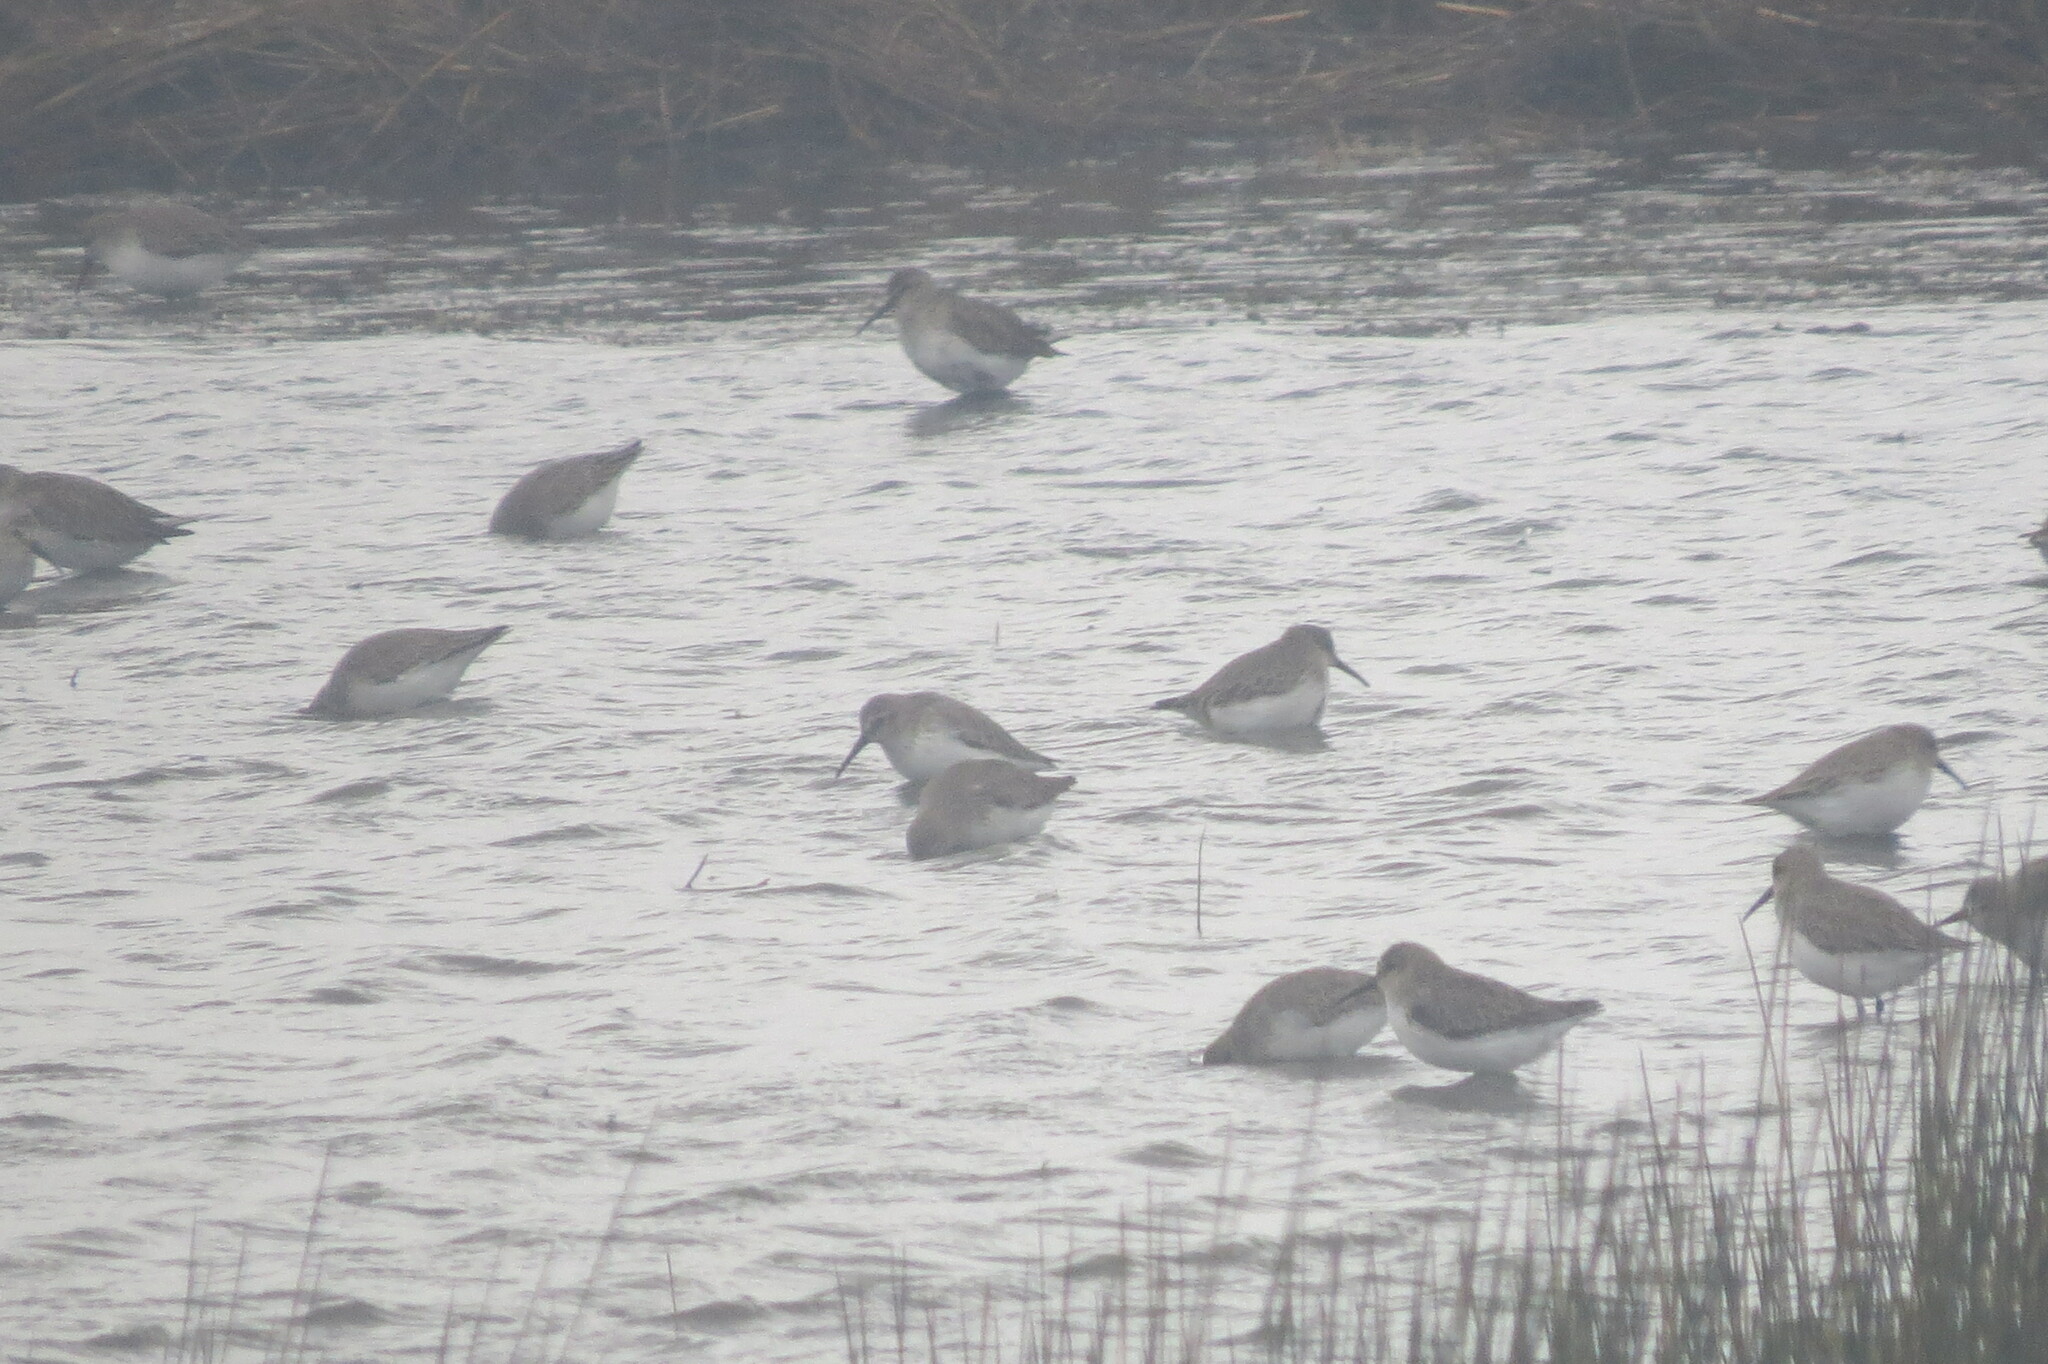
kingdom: Animalia
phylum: Chordata
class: Aves
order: Charadriiformes
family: Scolopacidae
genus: Calidris
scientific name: Calidris alpina
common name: Dunlin
